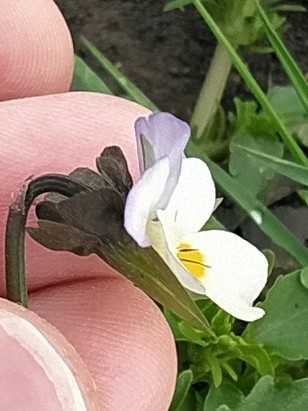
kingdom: Plantae
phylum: Tracheophyta
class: Magnoliopsida
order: Malpighiales
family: Violaceae
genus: Viola
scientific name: Viola arvensis
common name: Field pansy
